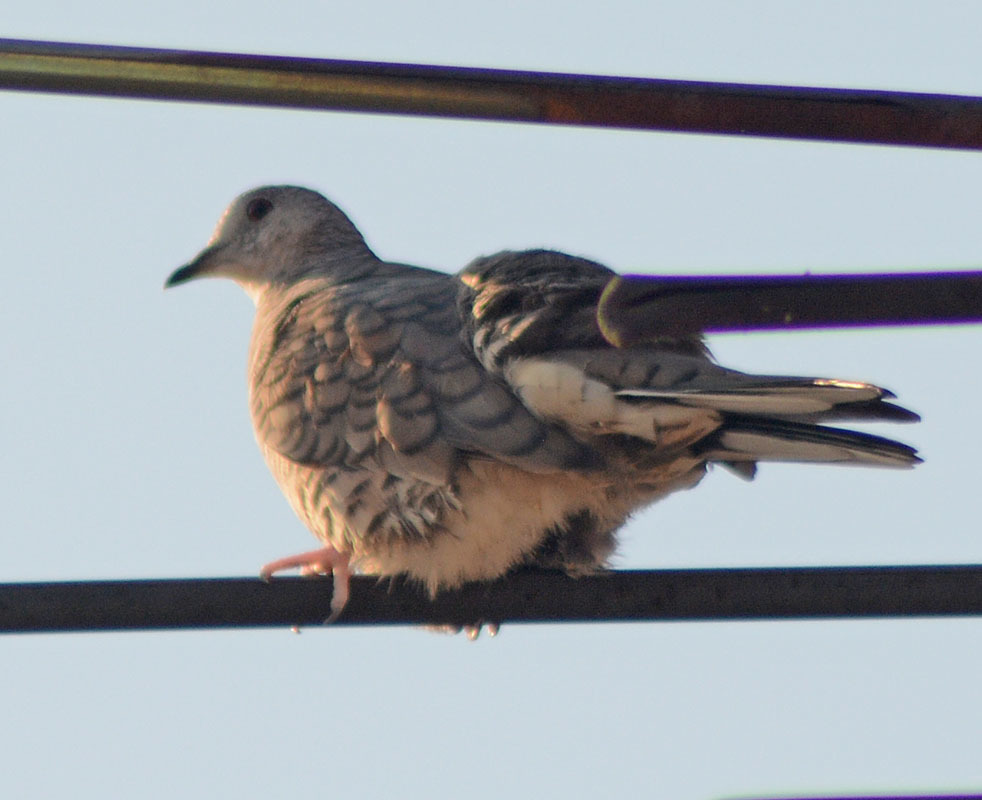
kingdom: Animalia
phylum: Chordata
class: Aves
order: Columbiformes
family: Columbidae
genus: Columbina
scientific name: Columbina inca
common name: Inca dove
